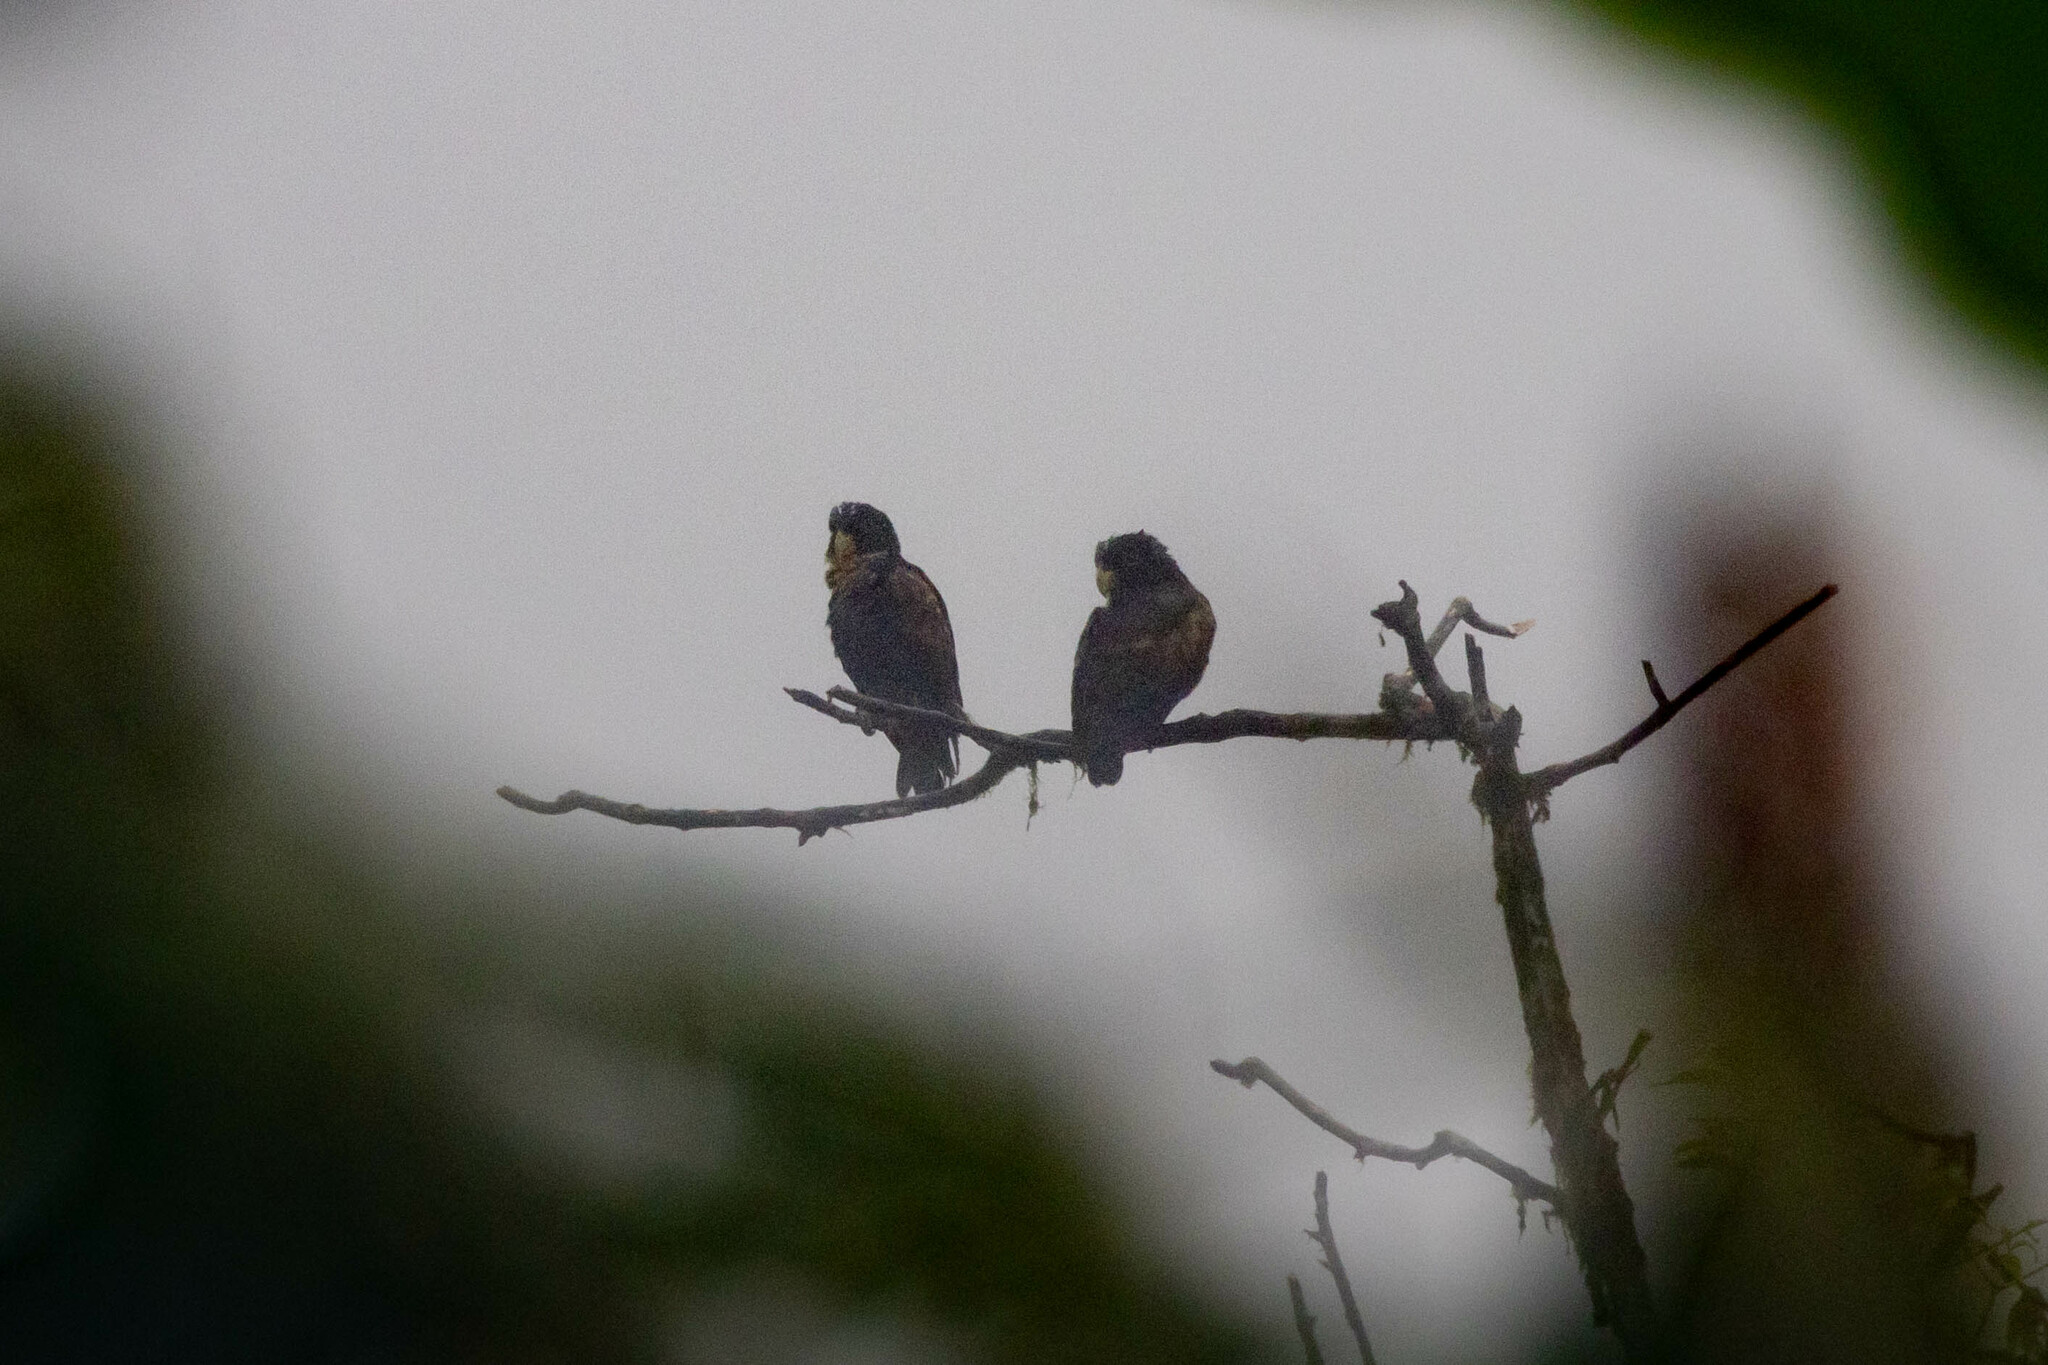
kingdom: Animalia
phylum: Chordata
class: Aves
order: Psittaciformes
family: Psittacidae
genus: Pionus
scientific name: Pionus chalcopterus
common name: Bronze-winged parrot
